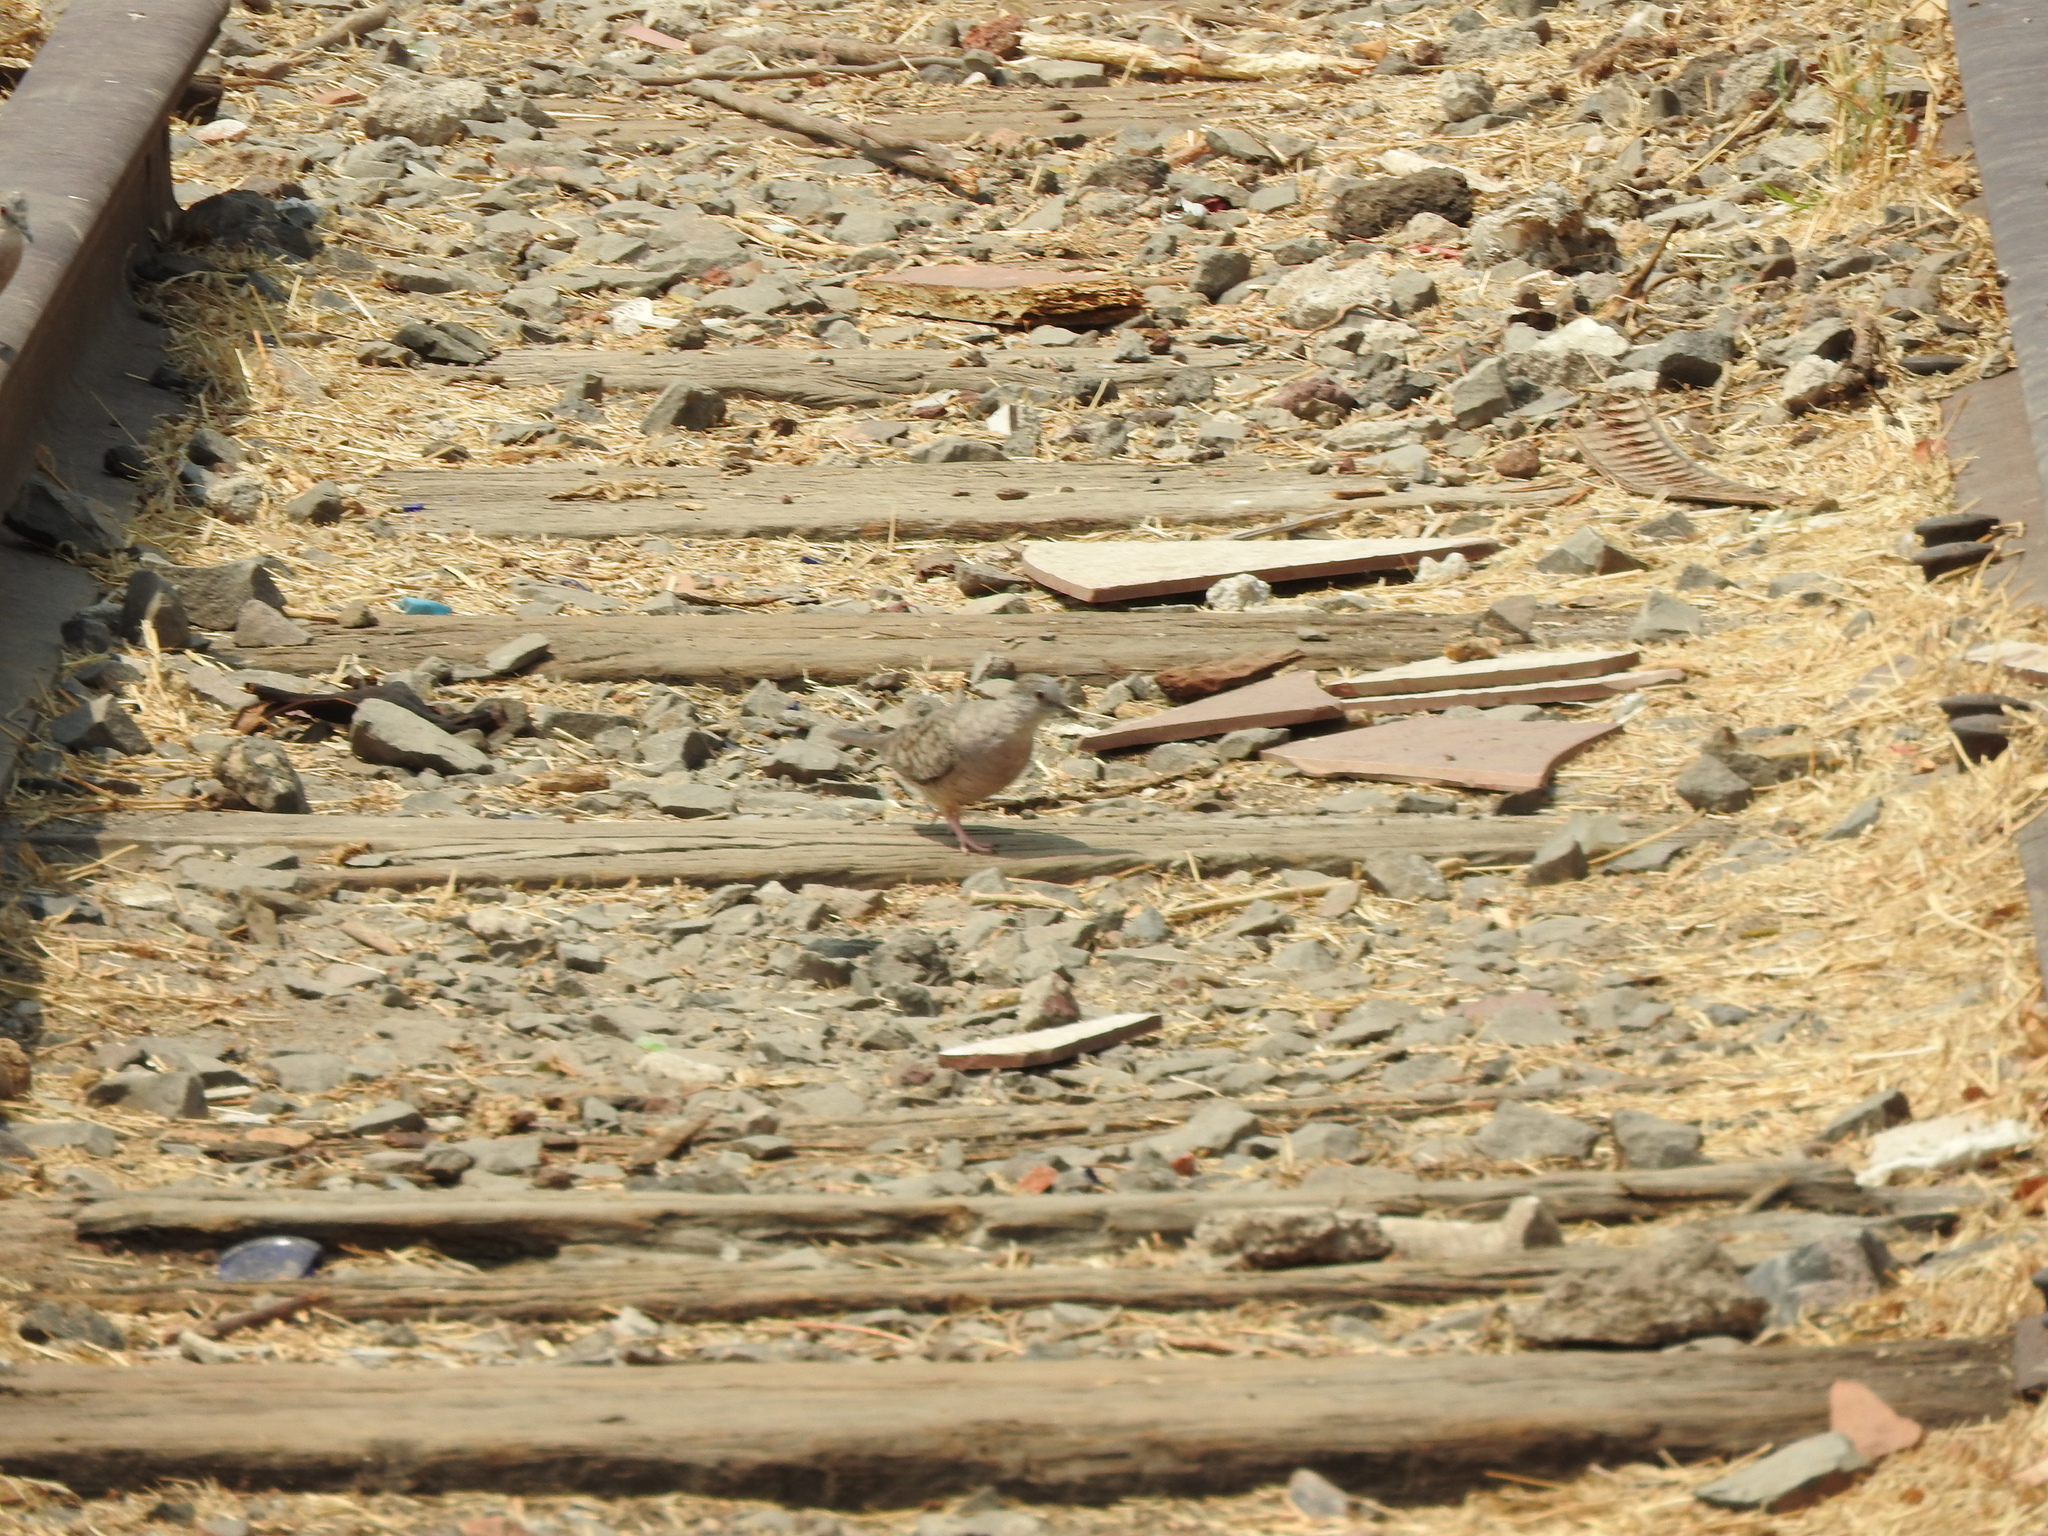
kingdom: Animalia
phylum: Chordata
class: Aves
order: Columbiformes
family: Columbidae
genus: Columbina
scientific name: Columbina inca
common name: Inca dove
